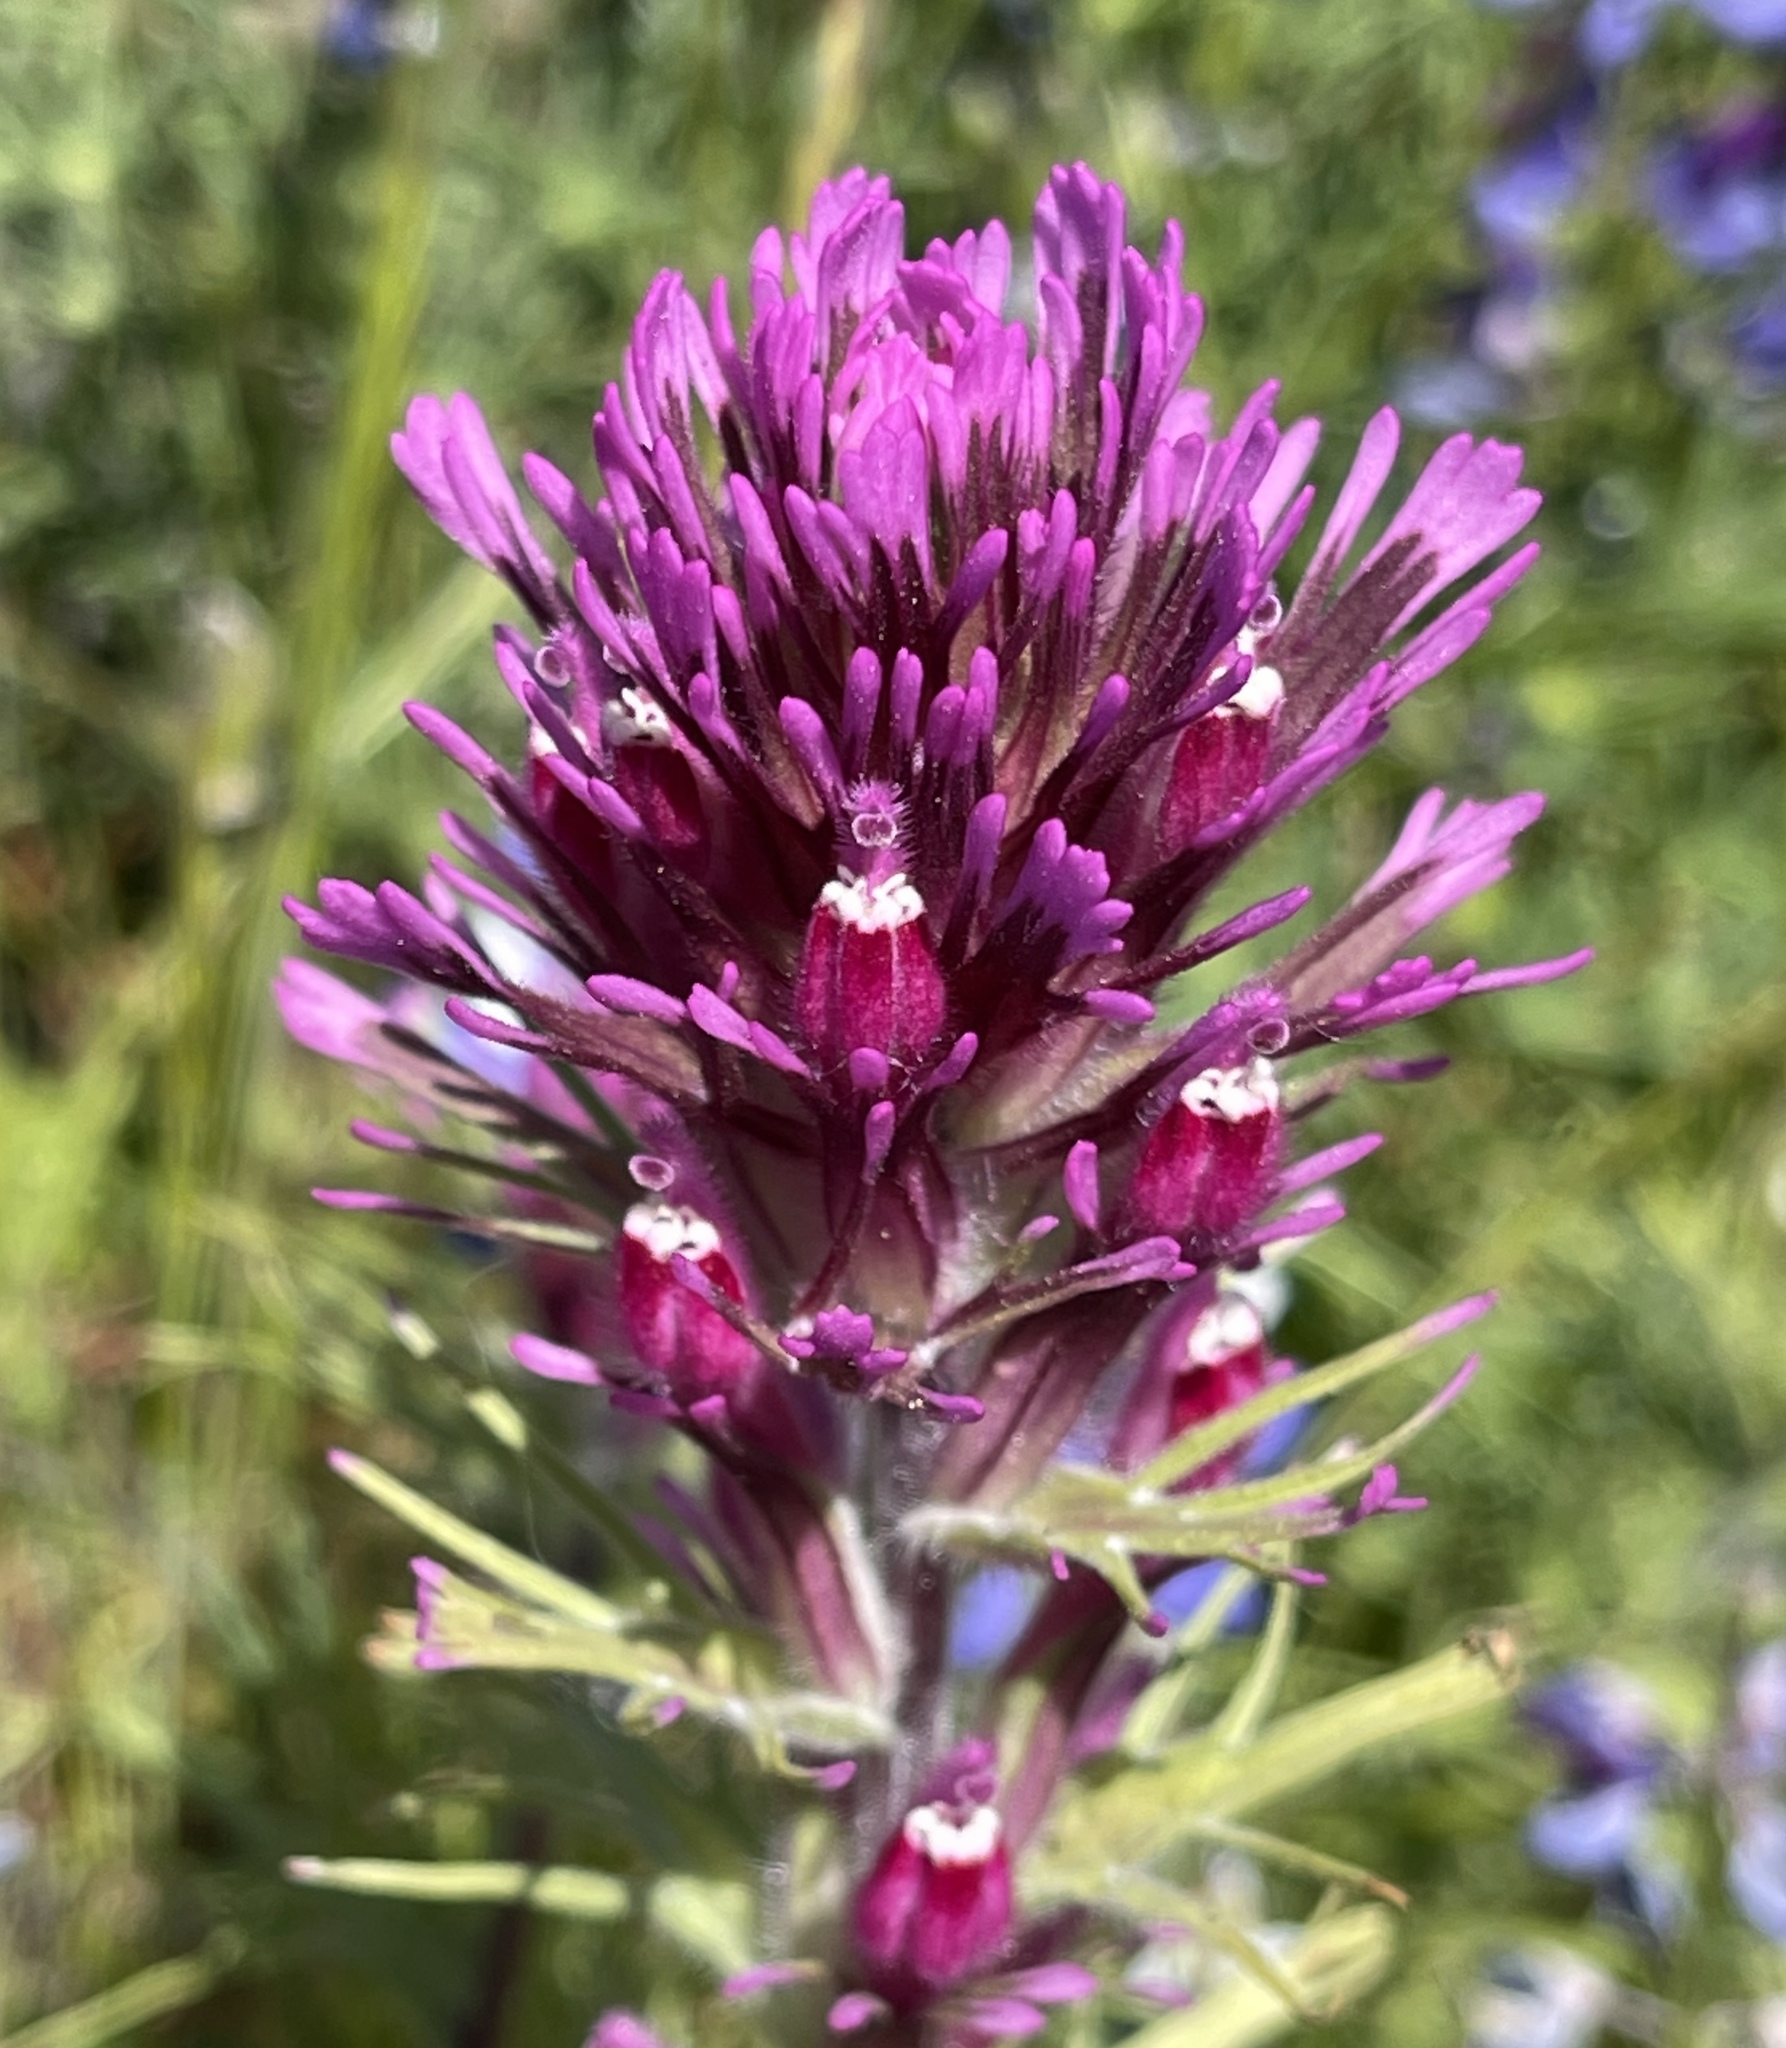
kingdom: Plantae
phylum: Tracheophyta
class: Magnoliopsida
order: Lamiales
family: Orobanchaceae
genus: Castilleja
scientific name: Castilleja exserta
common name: Purple owl-clover
